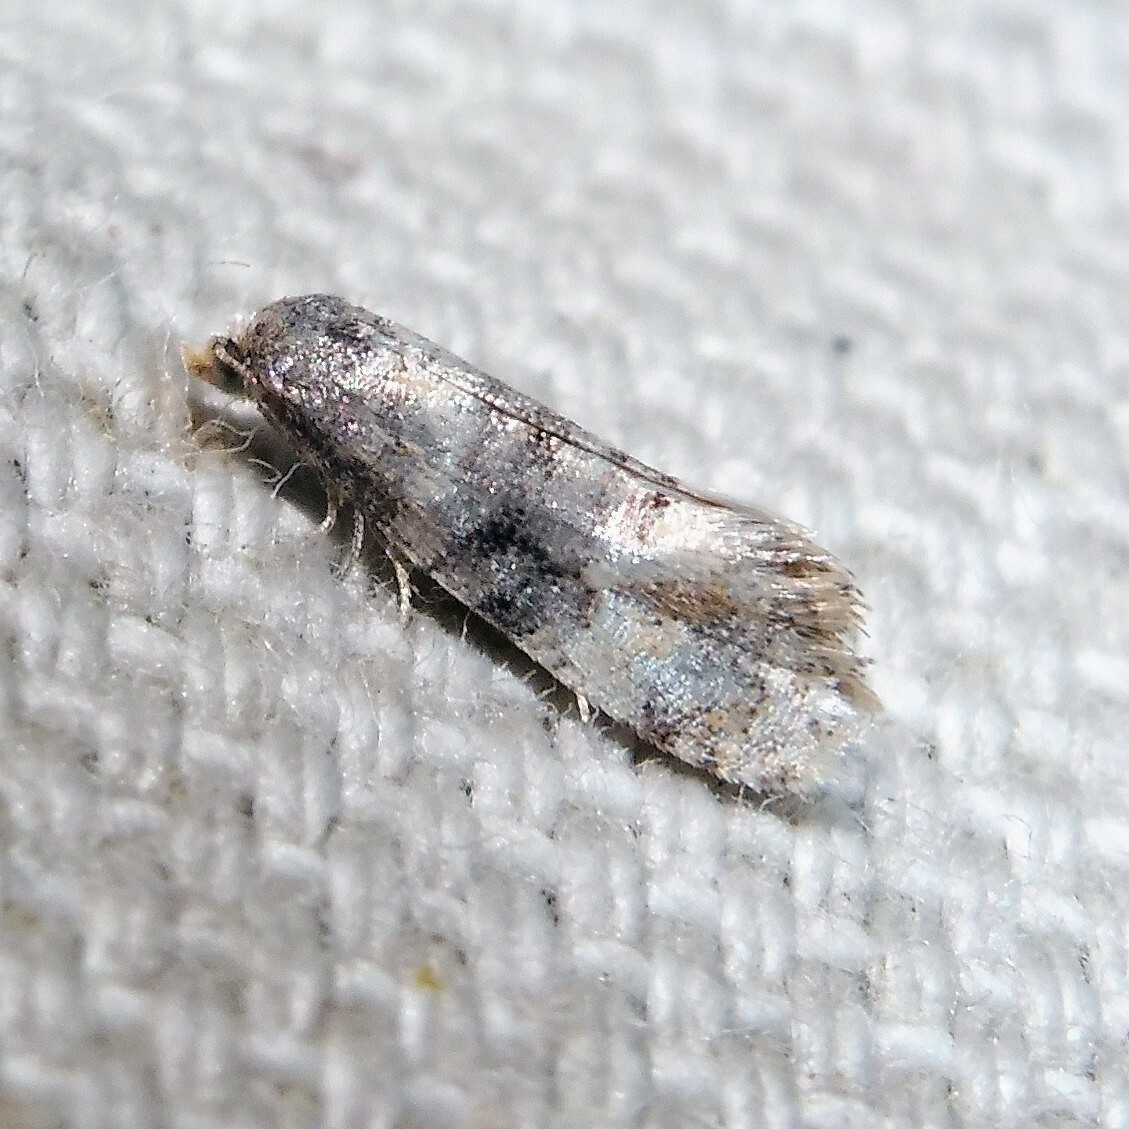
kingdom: Animalia
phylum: Arthropoda
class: Insecta
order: Lepidoptera
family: Tortricidae
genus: Thyraylia
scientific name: Thyraylia nana
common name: Birch conch
